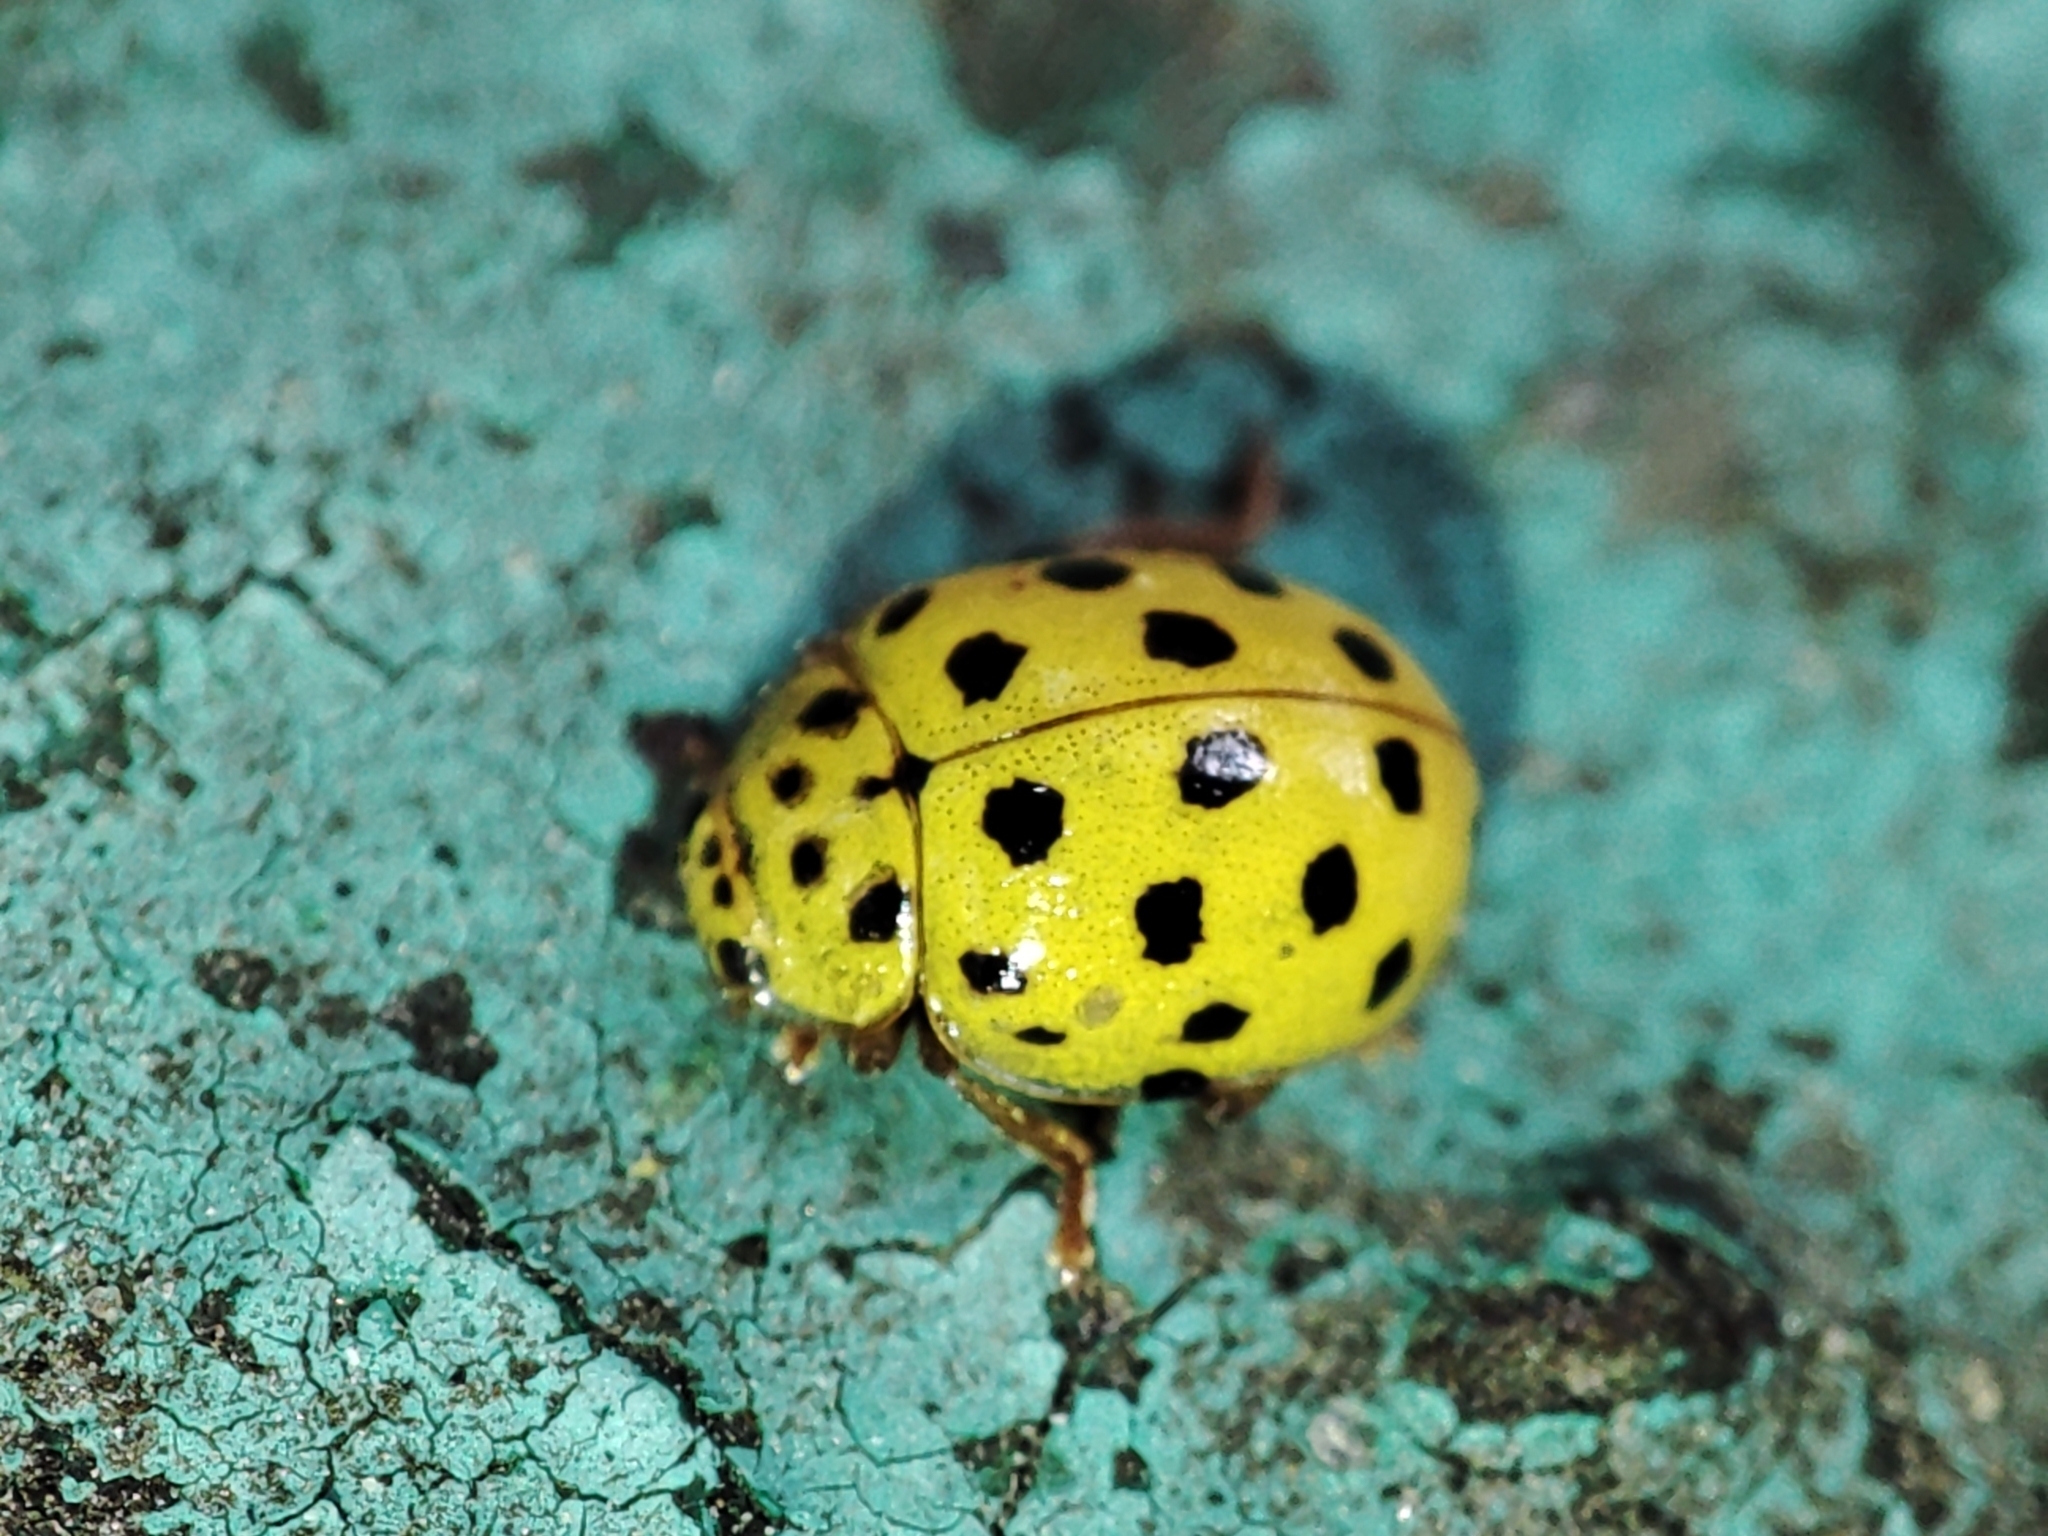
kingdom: Animalia
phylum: Arthropoda
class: Insecta
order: Coleoptera
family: Coccinellidae
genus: Psyllobora
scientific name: Psyllobora vigintiduopunctata
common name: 22-spot ladybird
